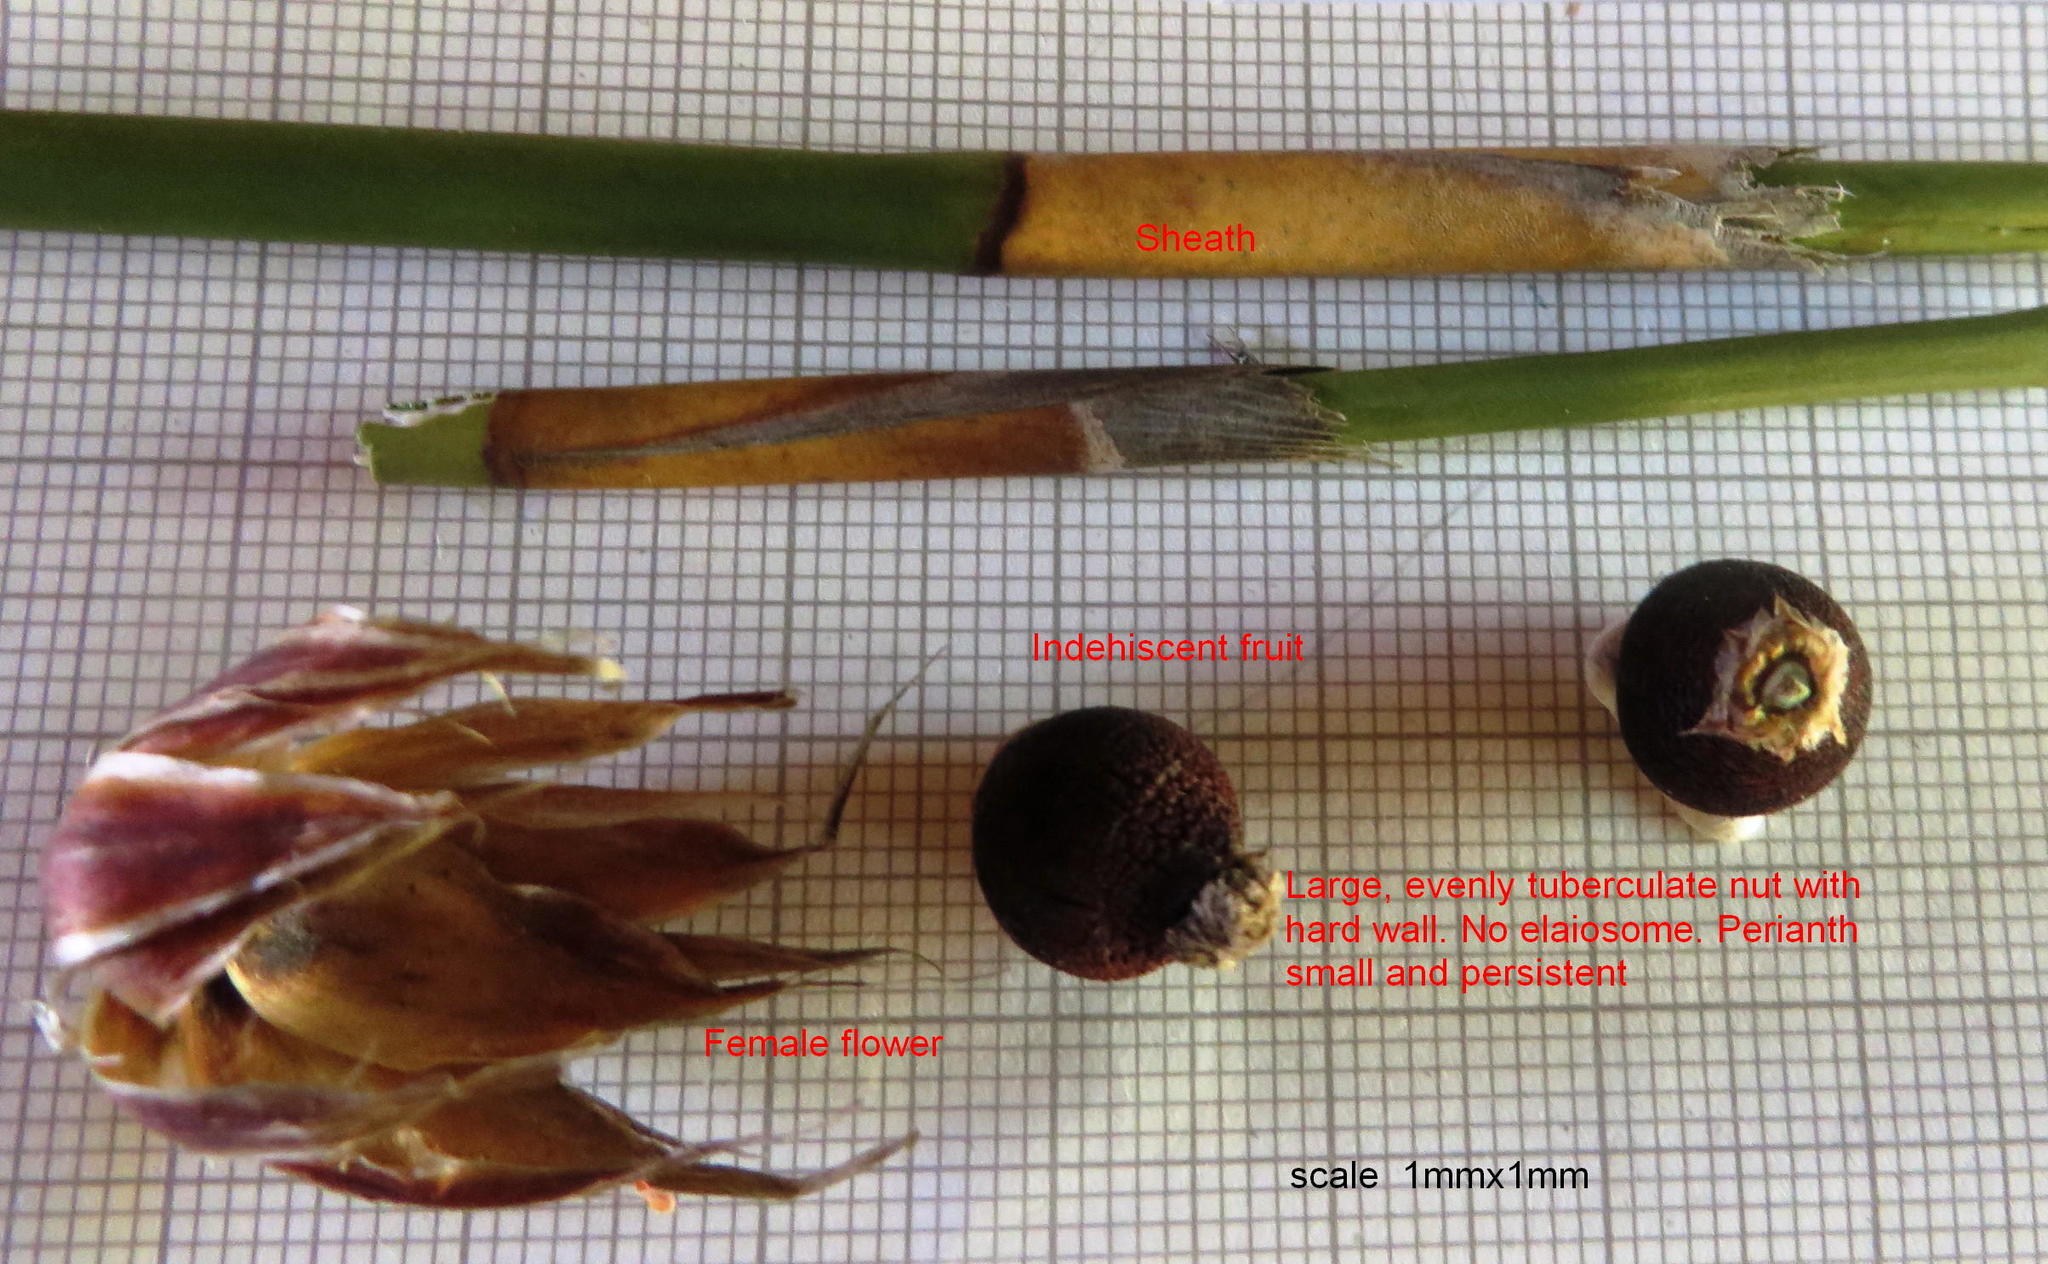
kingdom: Plantae
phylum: Tracheophyta
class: Liliopsida
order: Poales
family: Restionaceae
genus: Ceratocaryum
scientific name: Ceratocaryum argenteum
